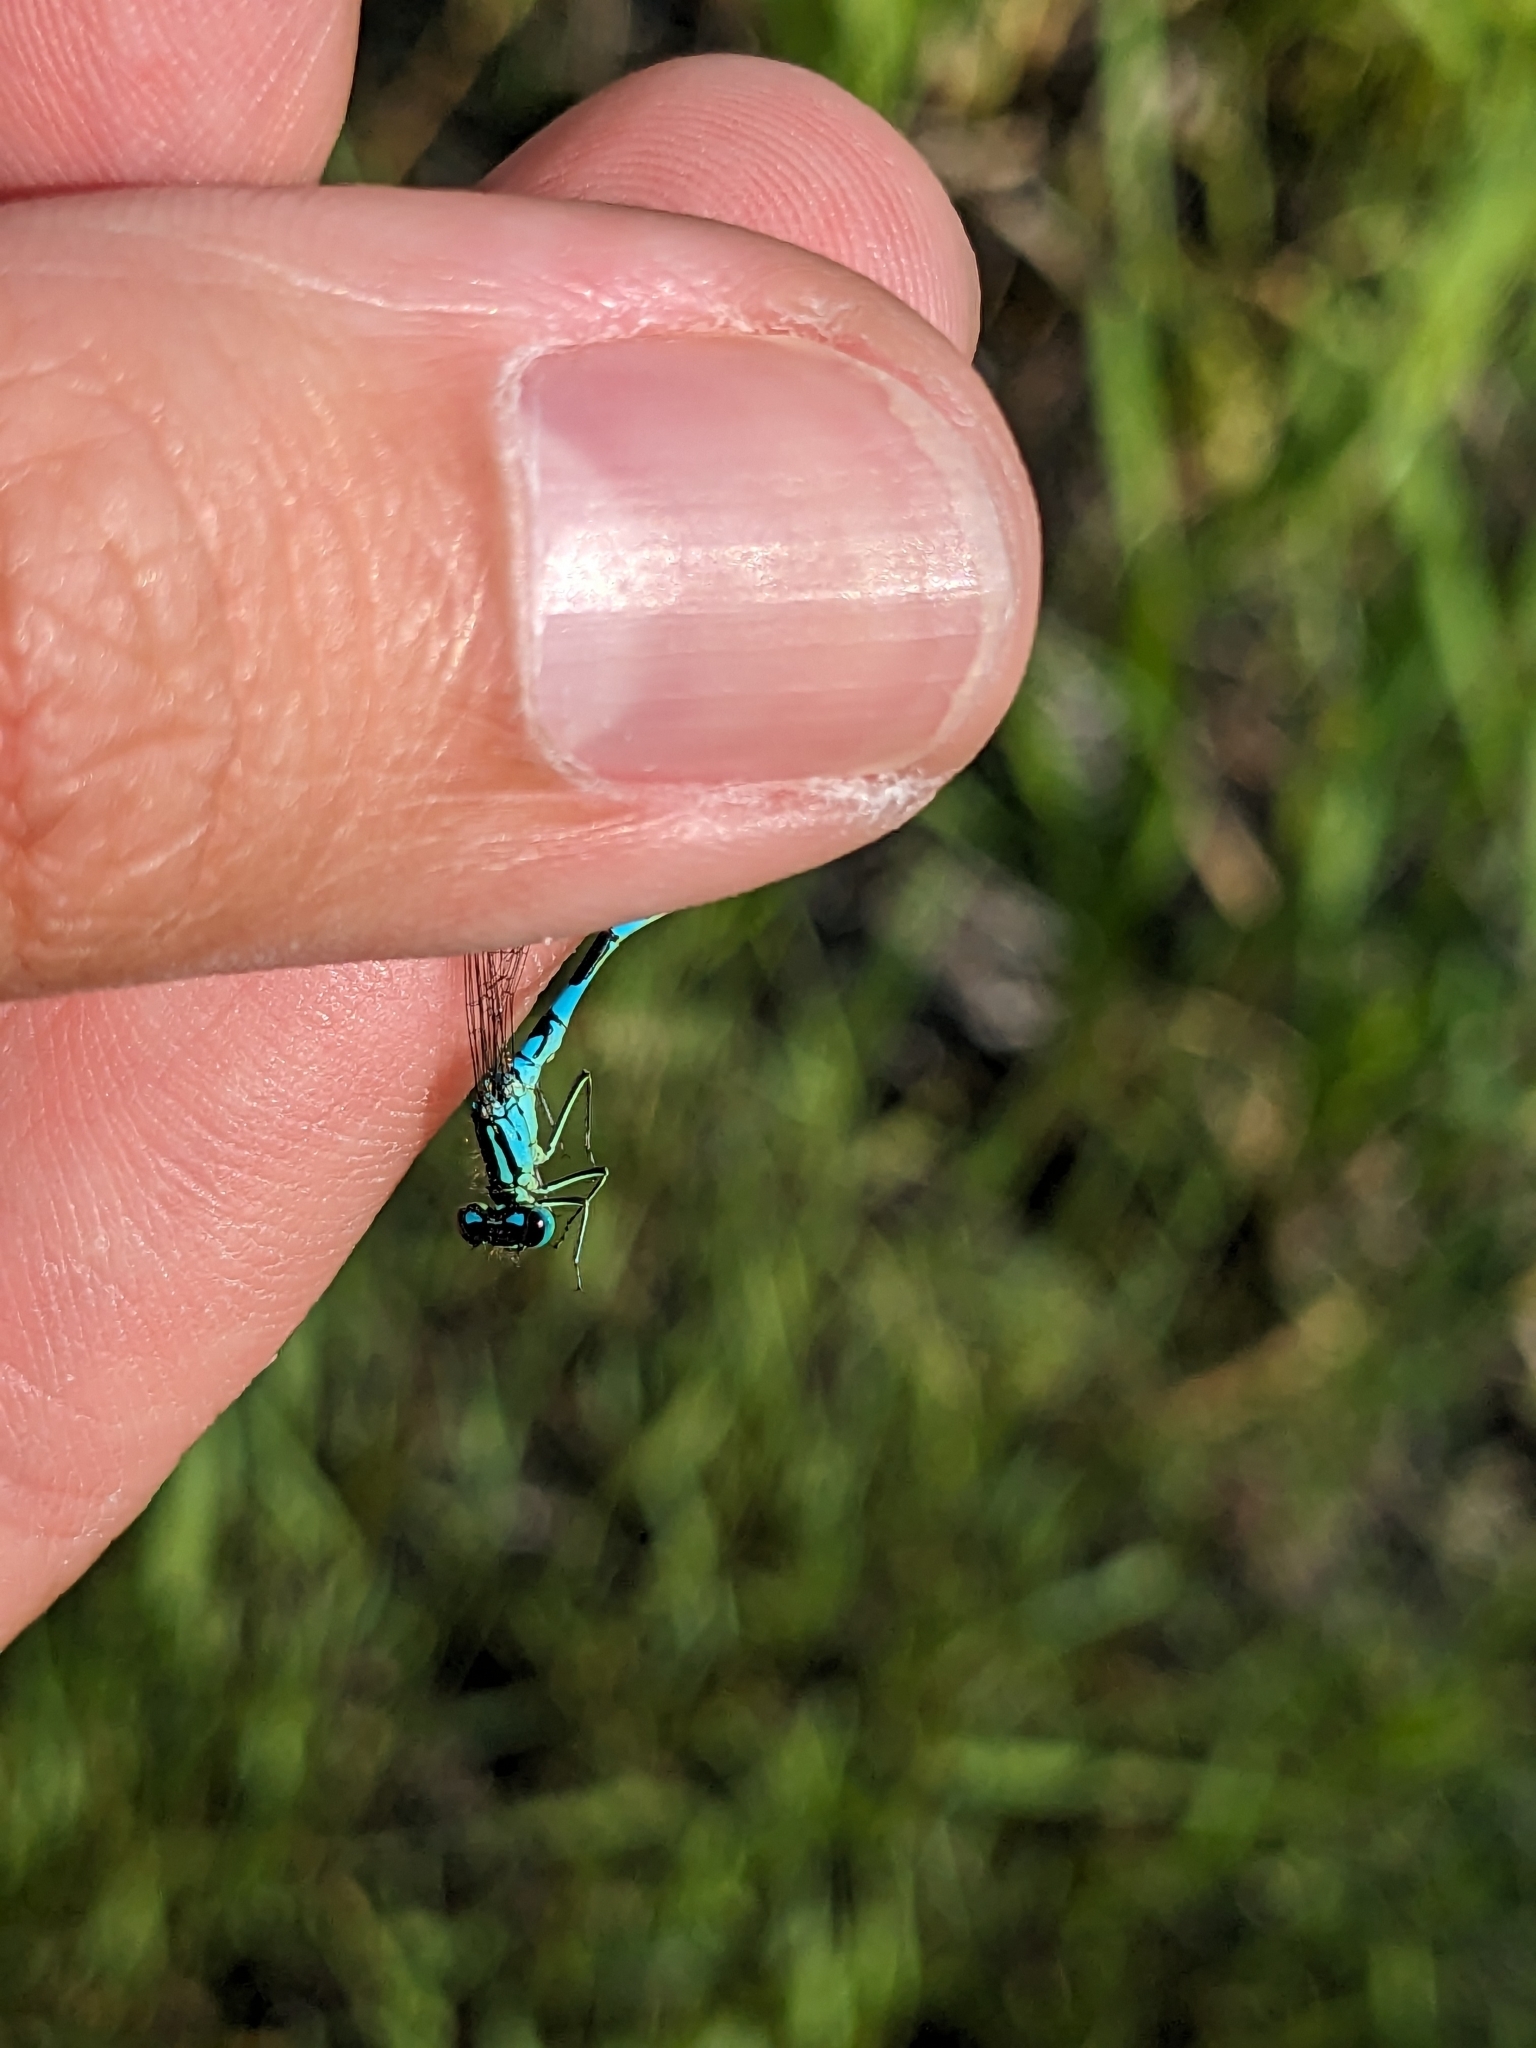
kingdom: Animalia
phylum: Arthropoda
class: Insecta
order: Odonata
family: Coenagrionidae
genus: Coenagrion
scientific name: Coenagrion resolutum
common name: Taiga bluet
